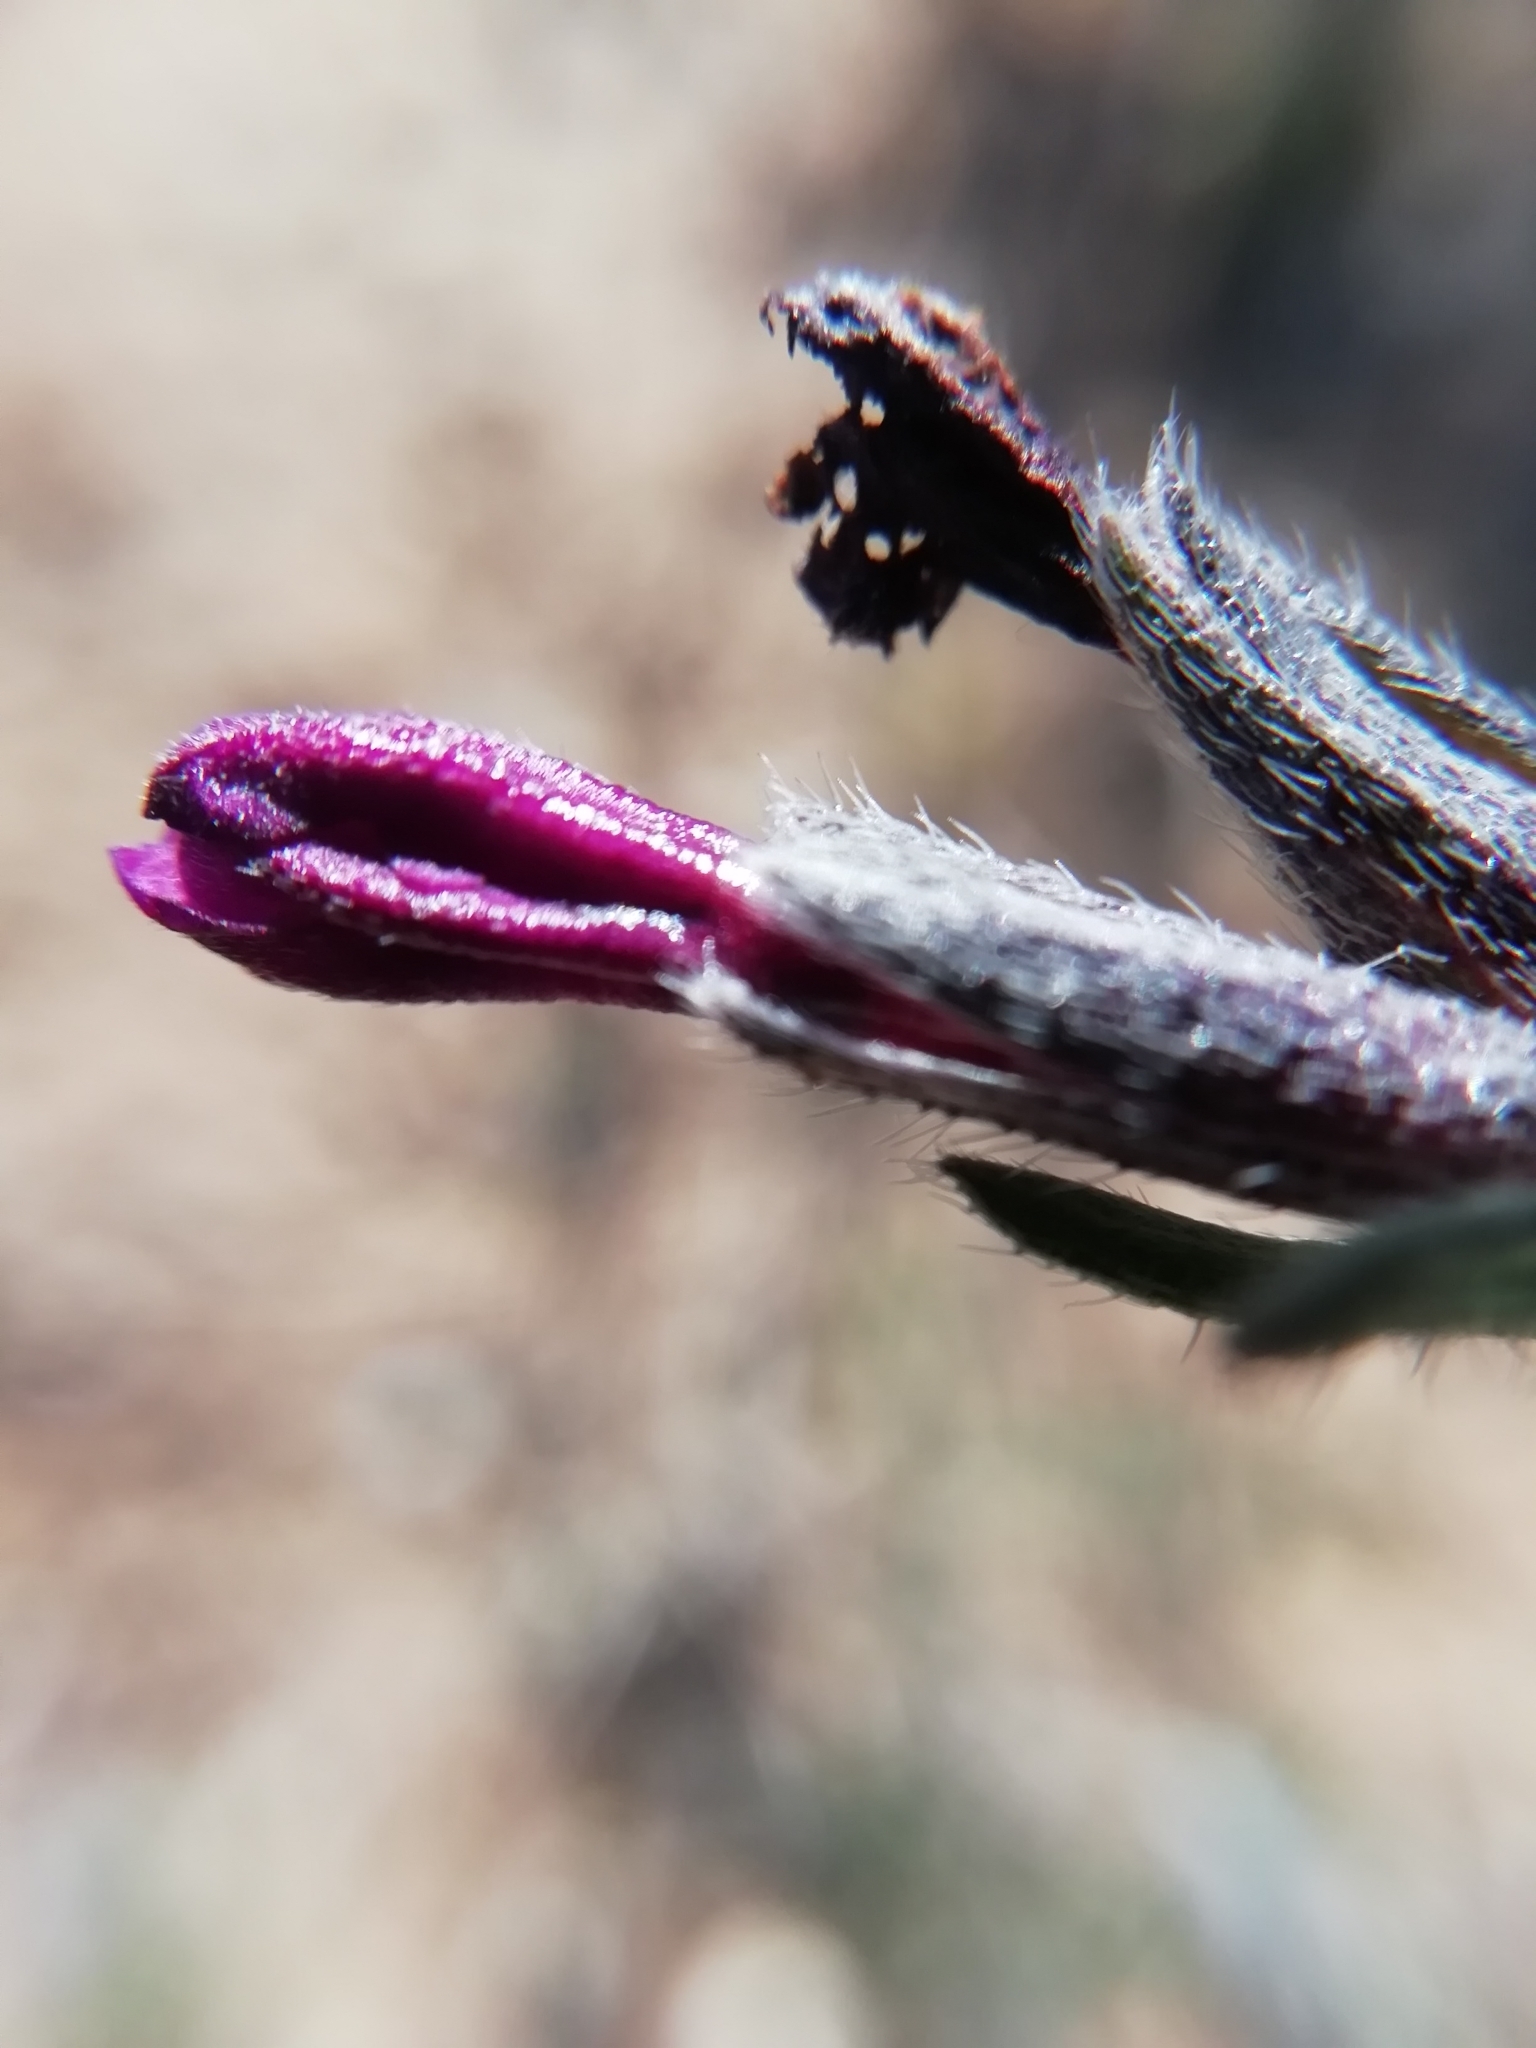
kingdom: Plantae
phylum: Tracheophyta
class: Magnoliopsida
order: Boraginales
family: Boraginaceae
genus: Lithodora
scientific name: Lithodora fruticosa
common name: Shrubby gromwell
